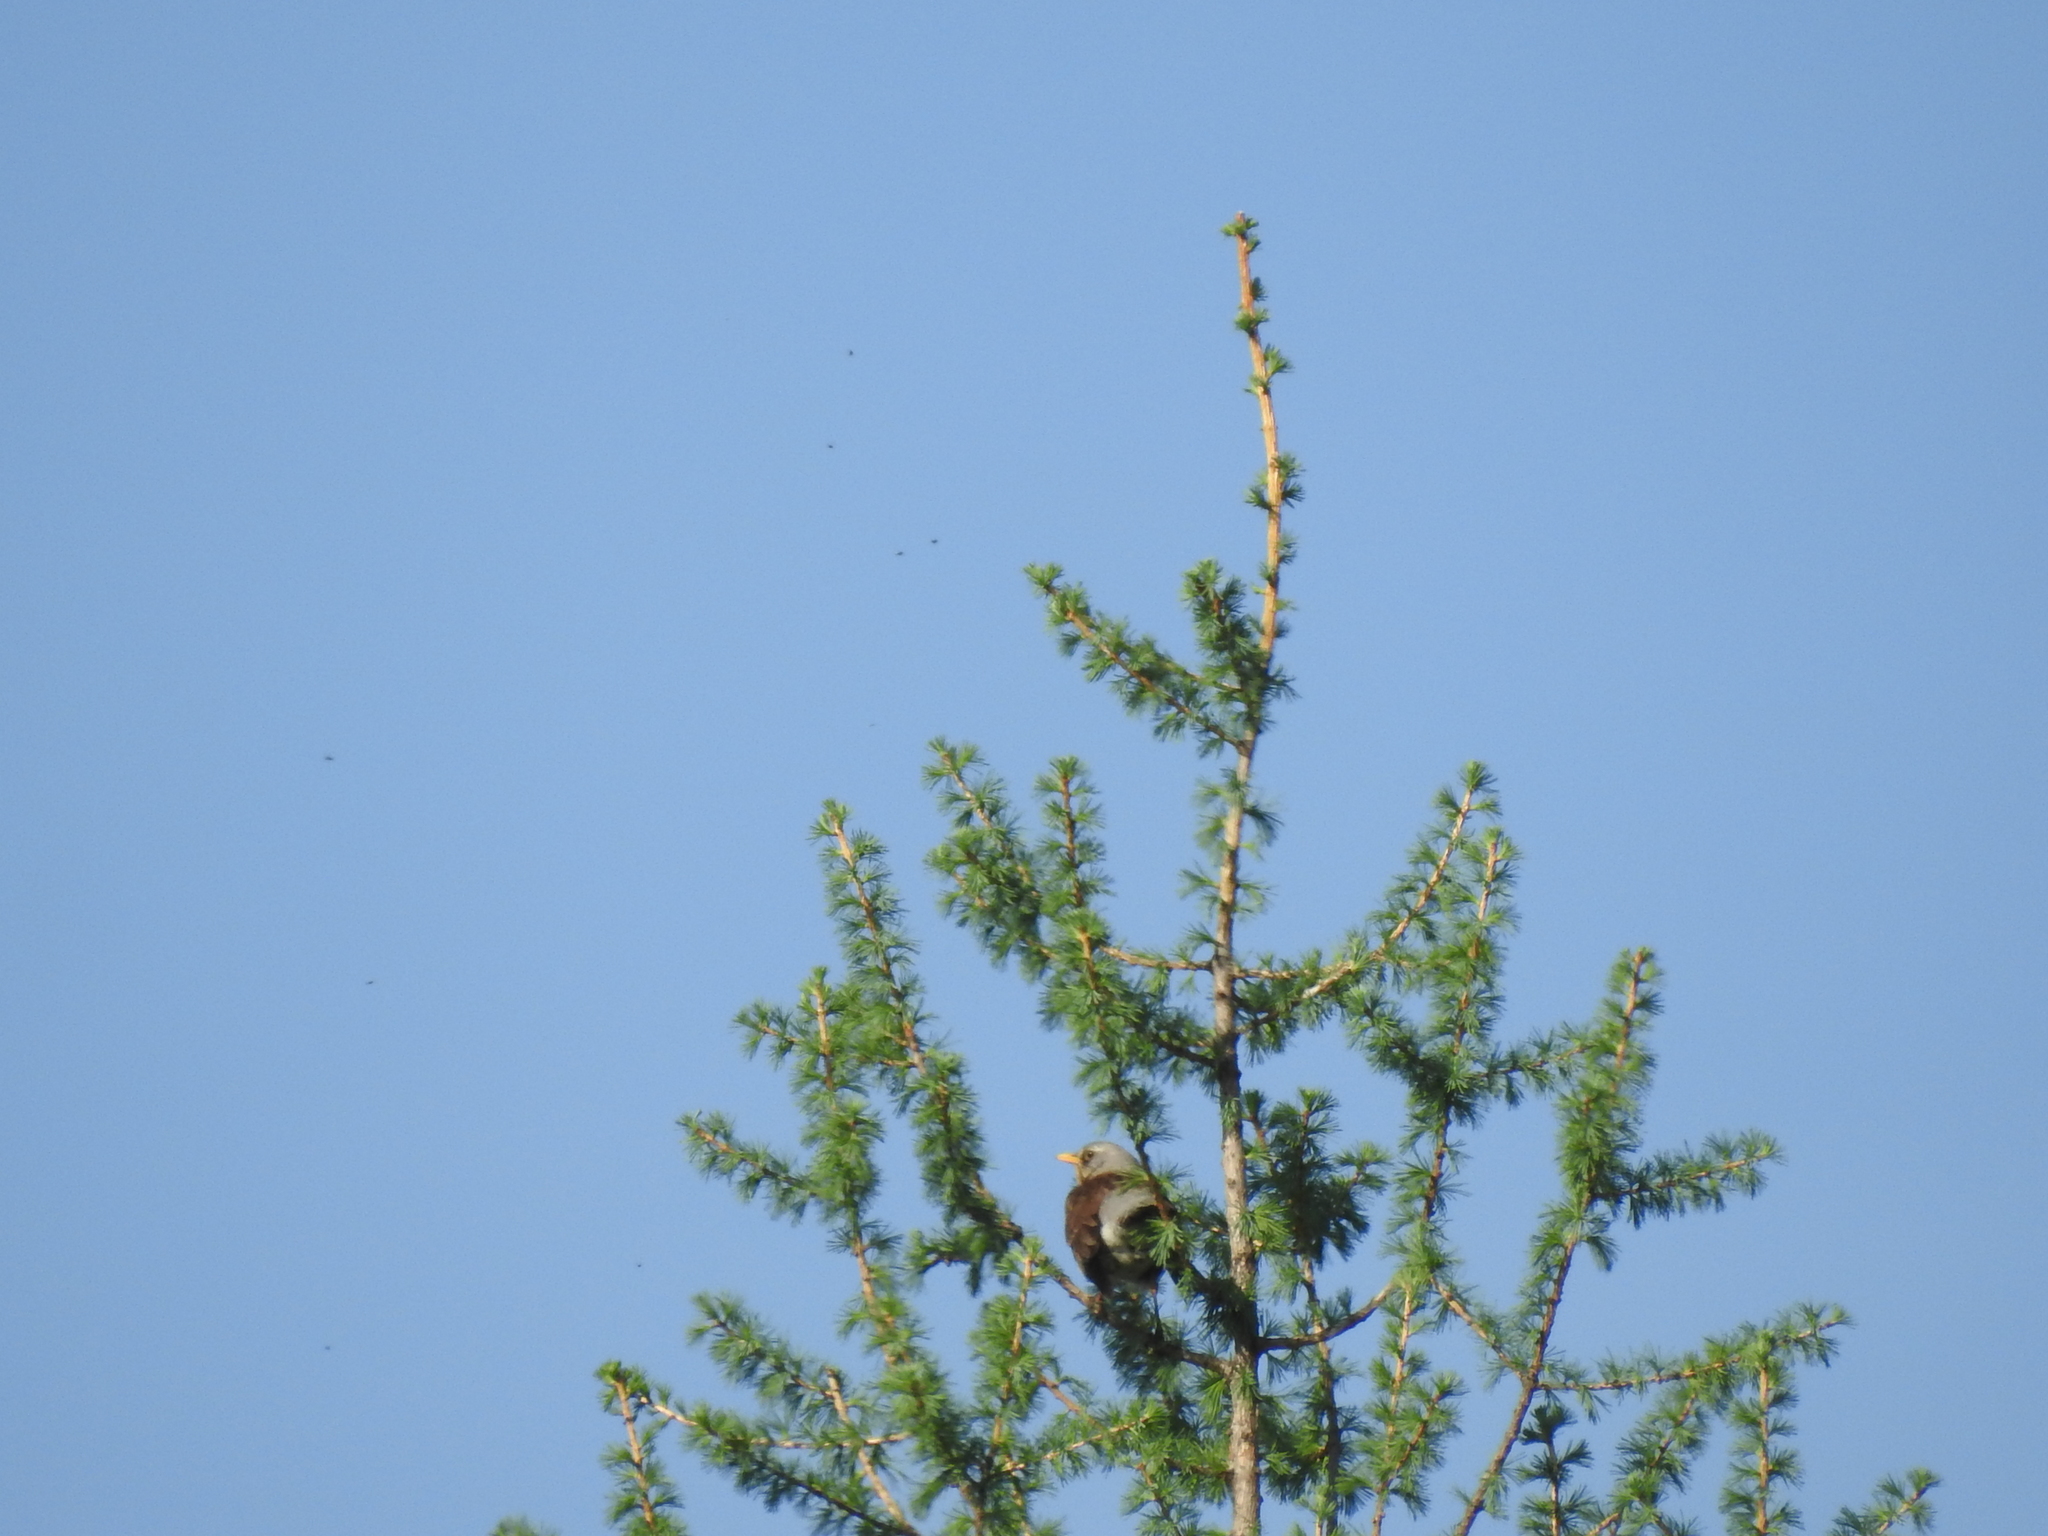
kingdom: Animalia
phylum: Chordata
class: Aves
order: Passeriformes
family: Turdidae
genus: Turdus
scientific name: Turdus pilaris
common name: Fieldfare
